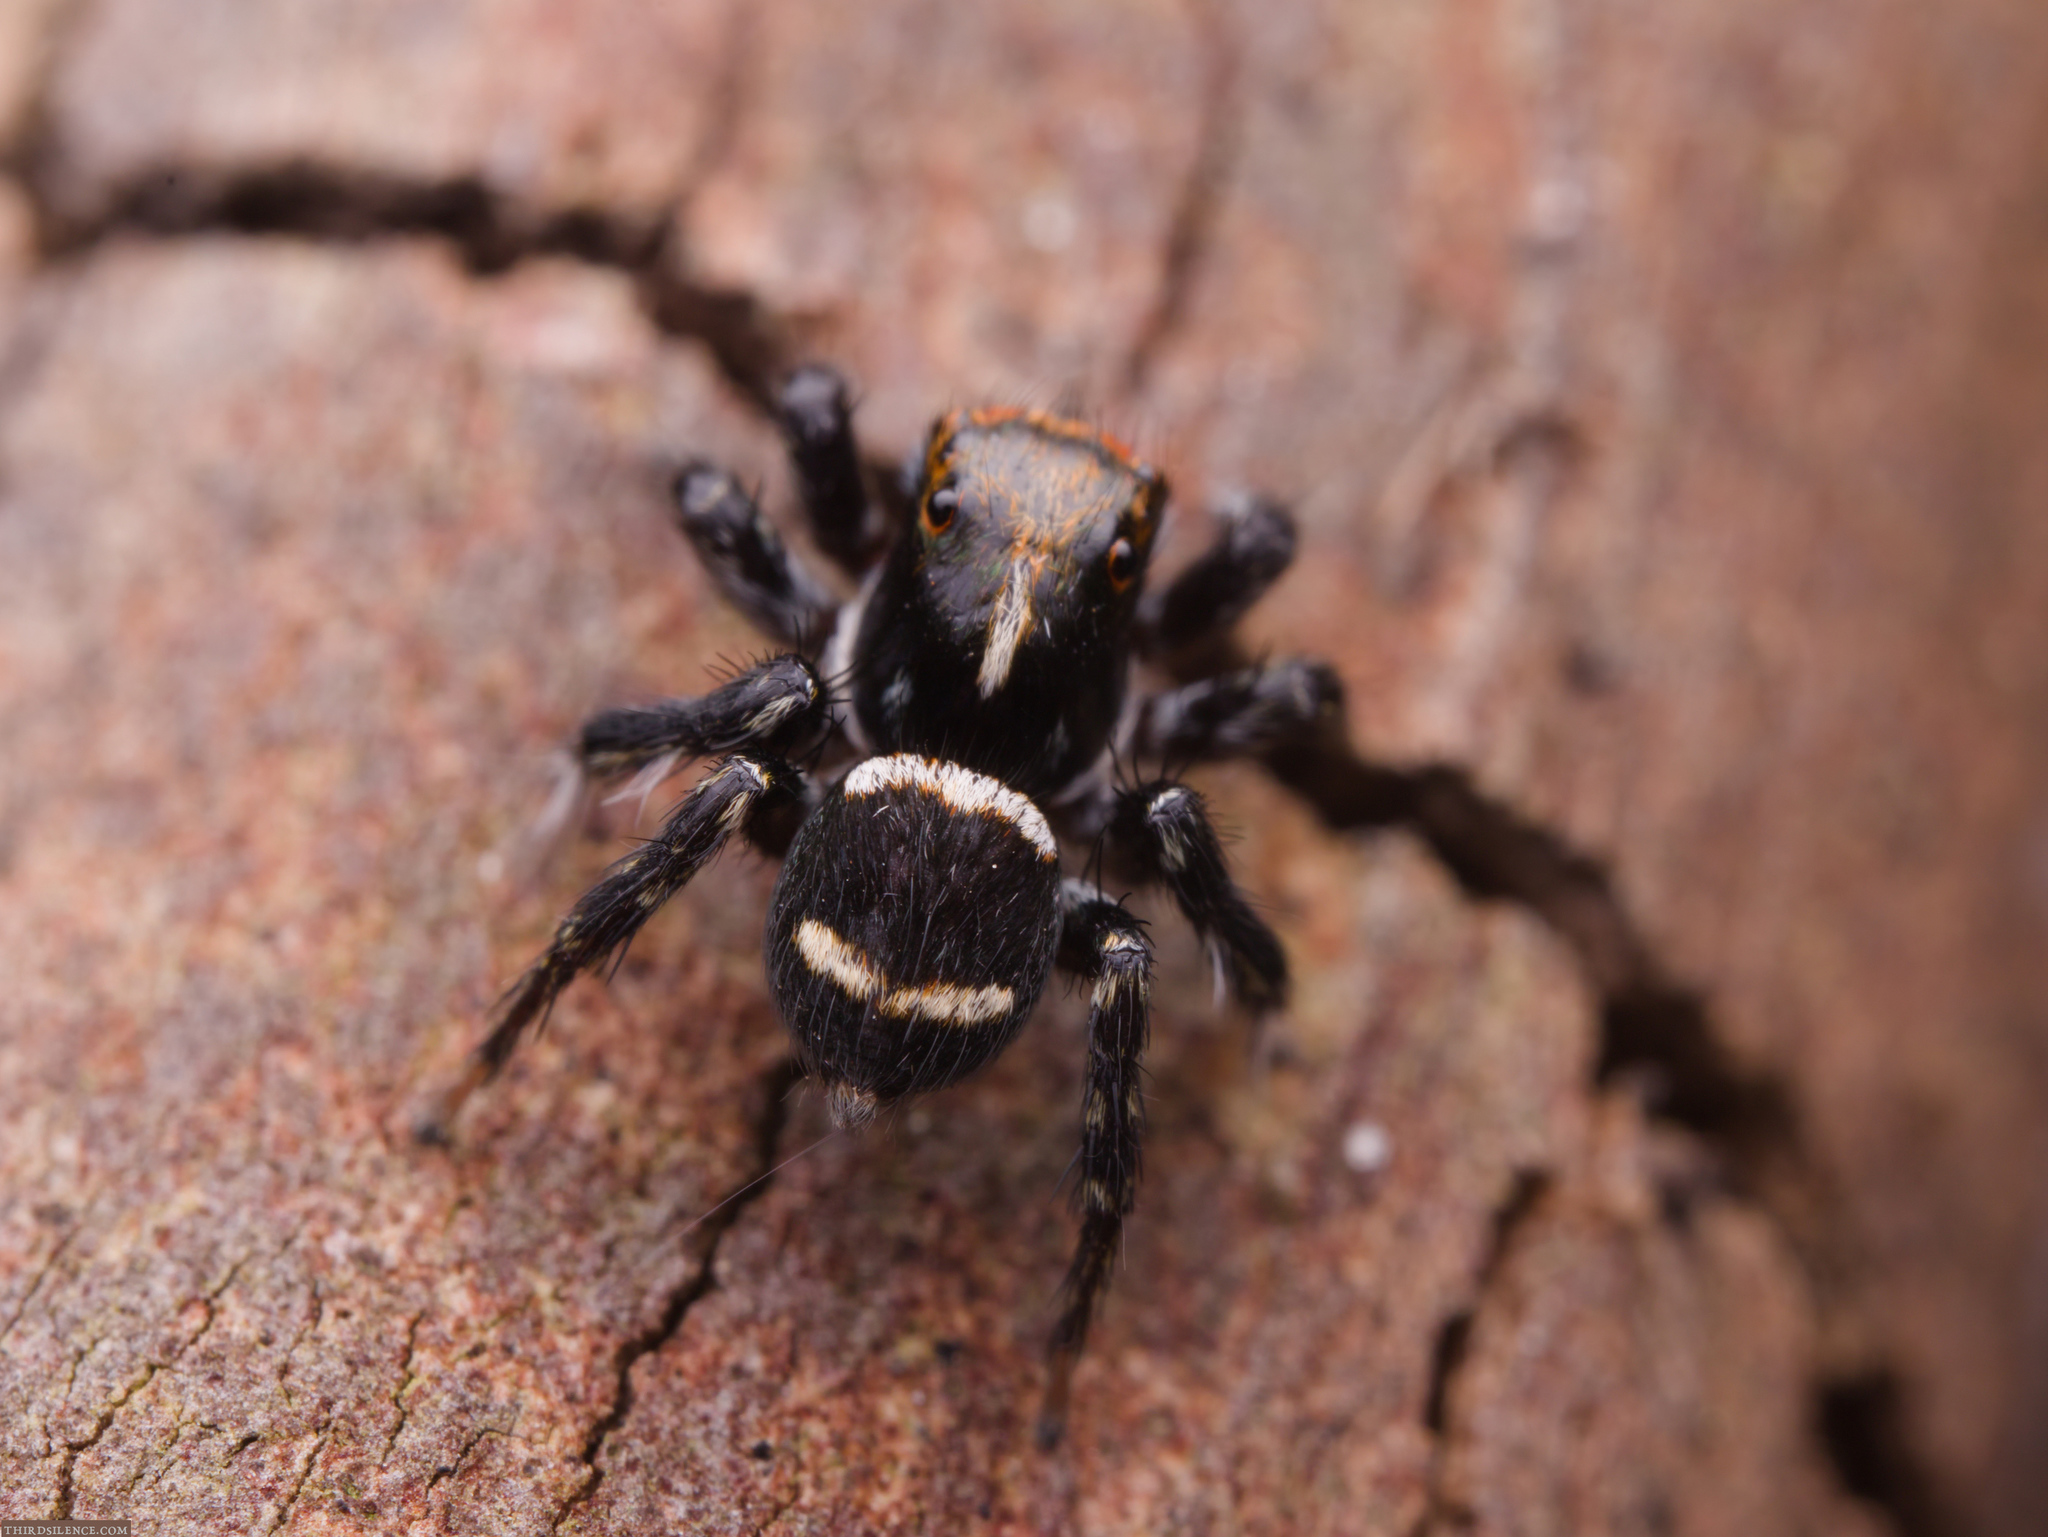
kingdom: Animalia
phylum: Arthropoda
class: Arachnida
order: Araneae
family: Salticidae
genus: Saitis
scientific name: Saitis virgatus
